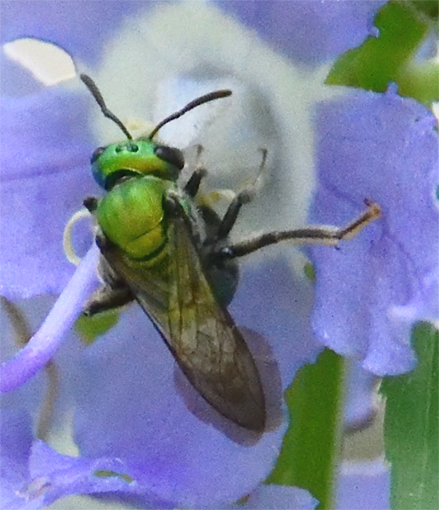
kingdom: Animalia
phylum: Arthropoda
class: Insecta
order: Hymenoptera
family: Halictidae
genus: Augochlora
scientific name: Augochlora pura
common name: Pure green sweat bee
